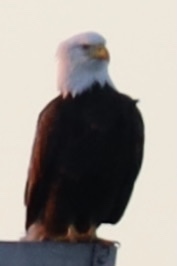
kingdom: Animalia
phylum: Chordata
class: Aves
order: Accipitriformes
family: Accipitridae
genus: Haliaeetus
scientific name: Haliaeetus leucocephalus
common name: Bald eagle
